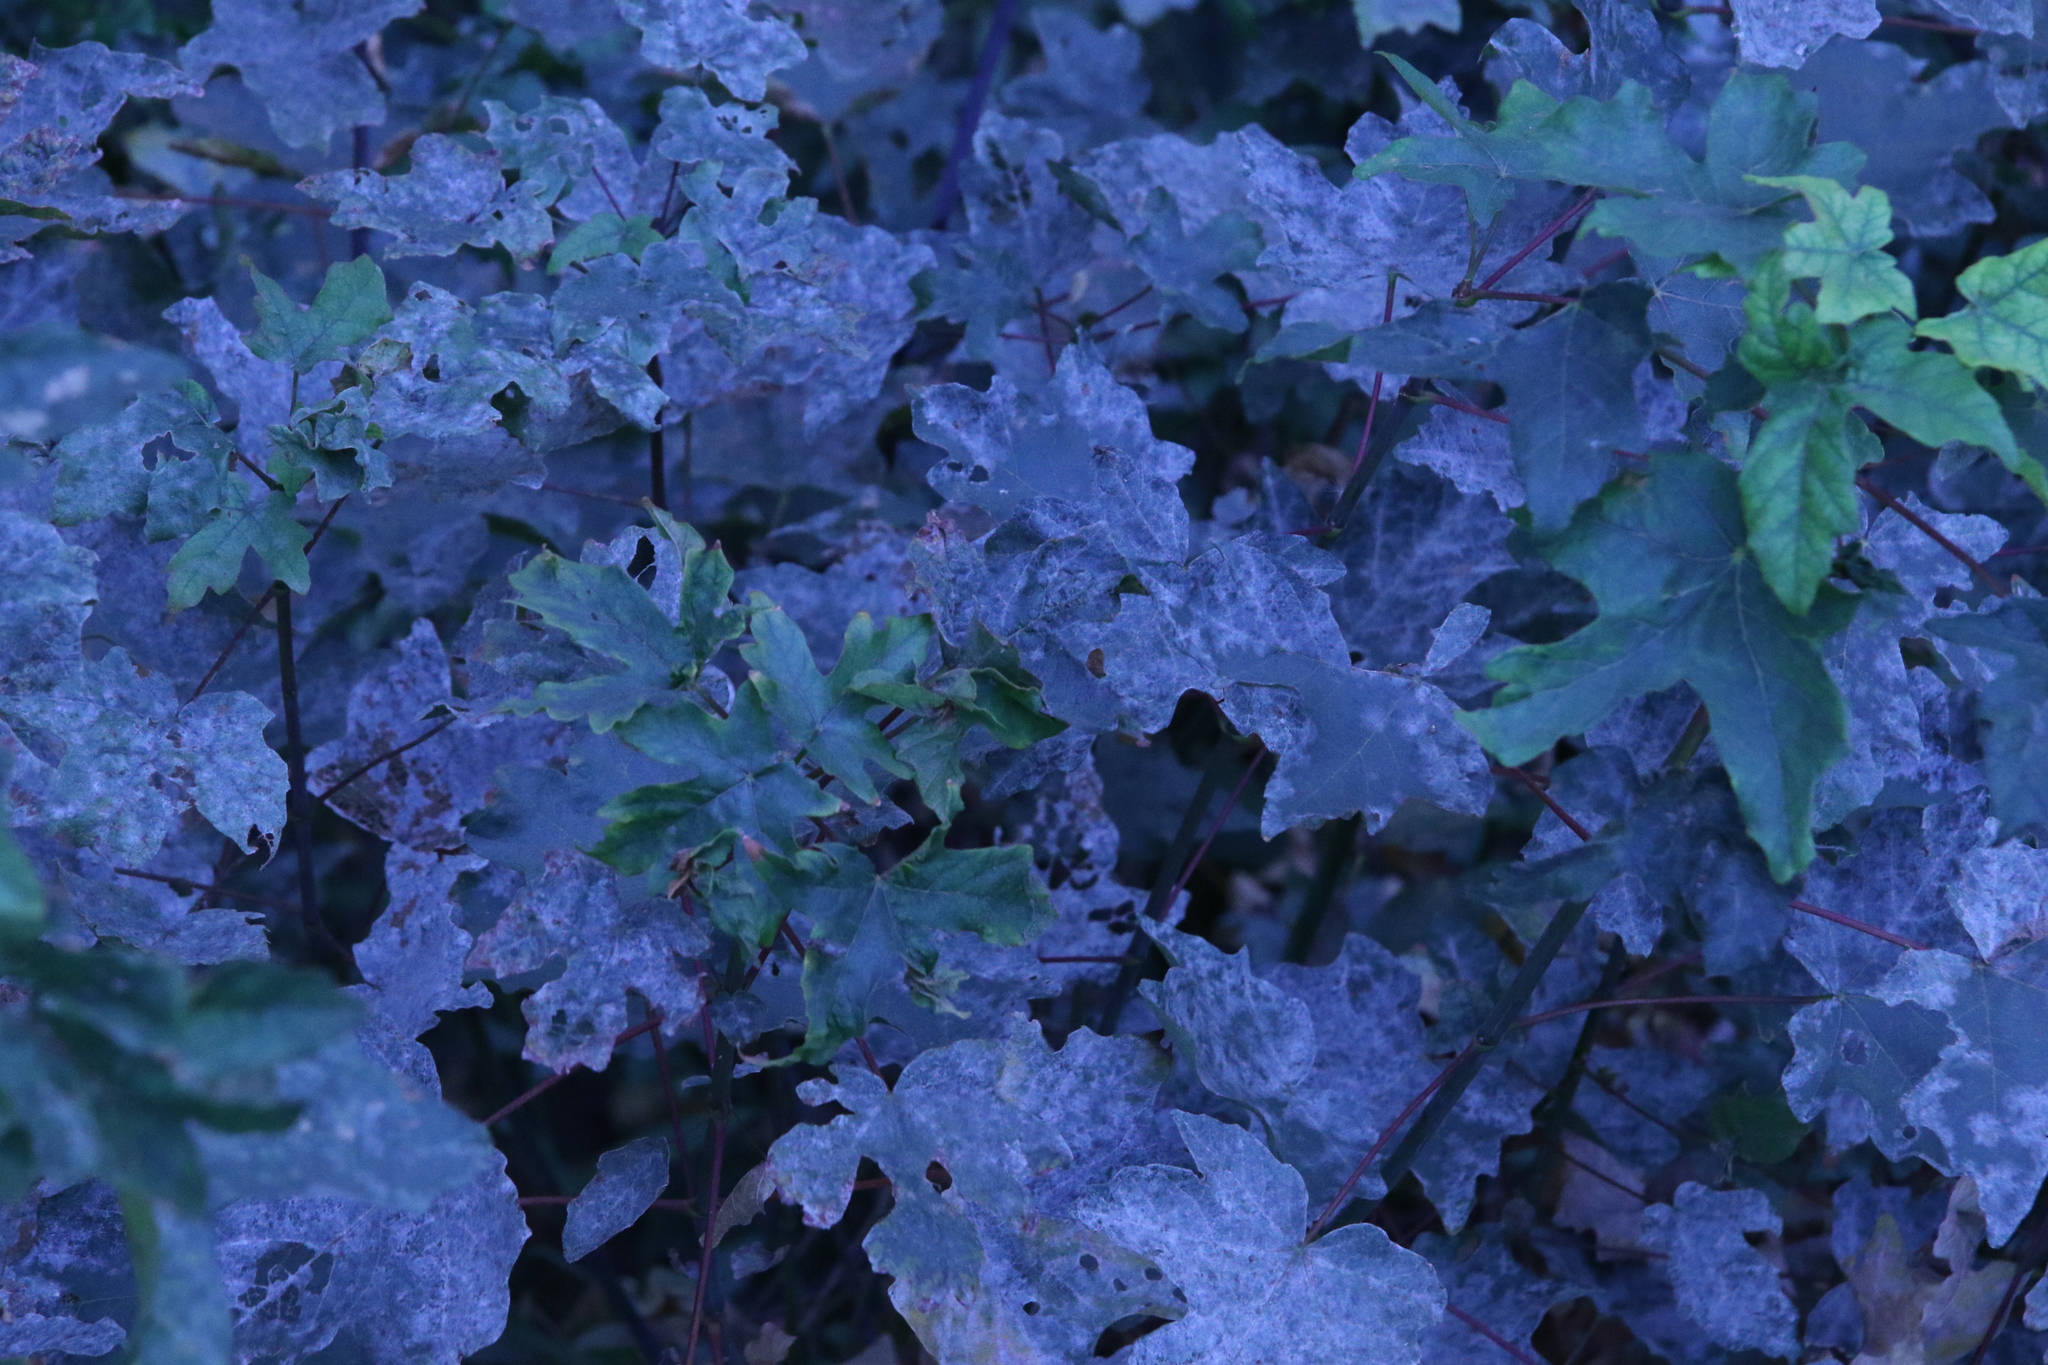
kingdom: Plantae
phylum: Tracheophyta
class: Magnoliopsida
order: Sapindales
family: Sapindaceae
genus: Acer
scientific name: Acer macrophyllum
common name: Oregon maple
